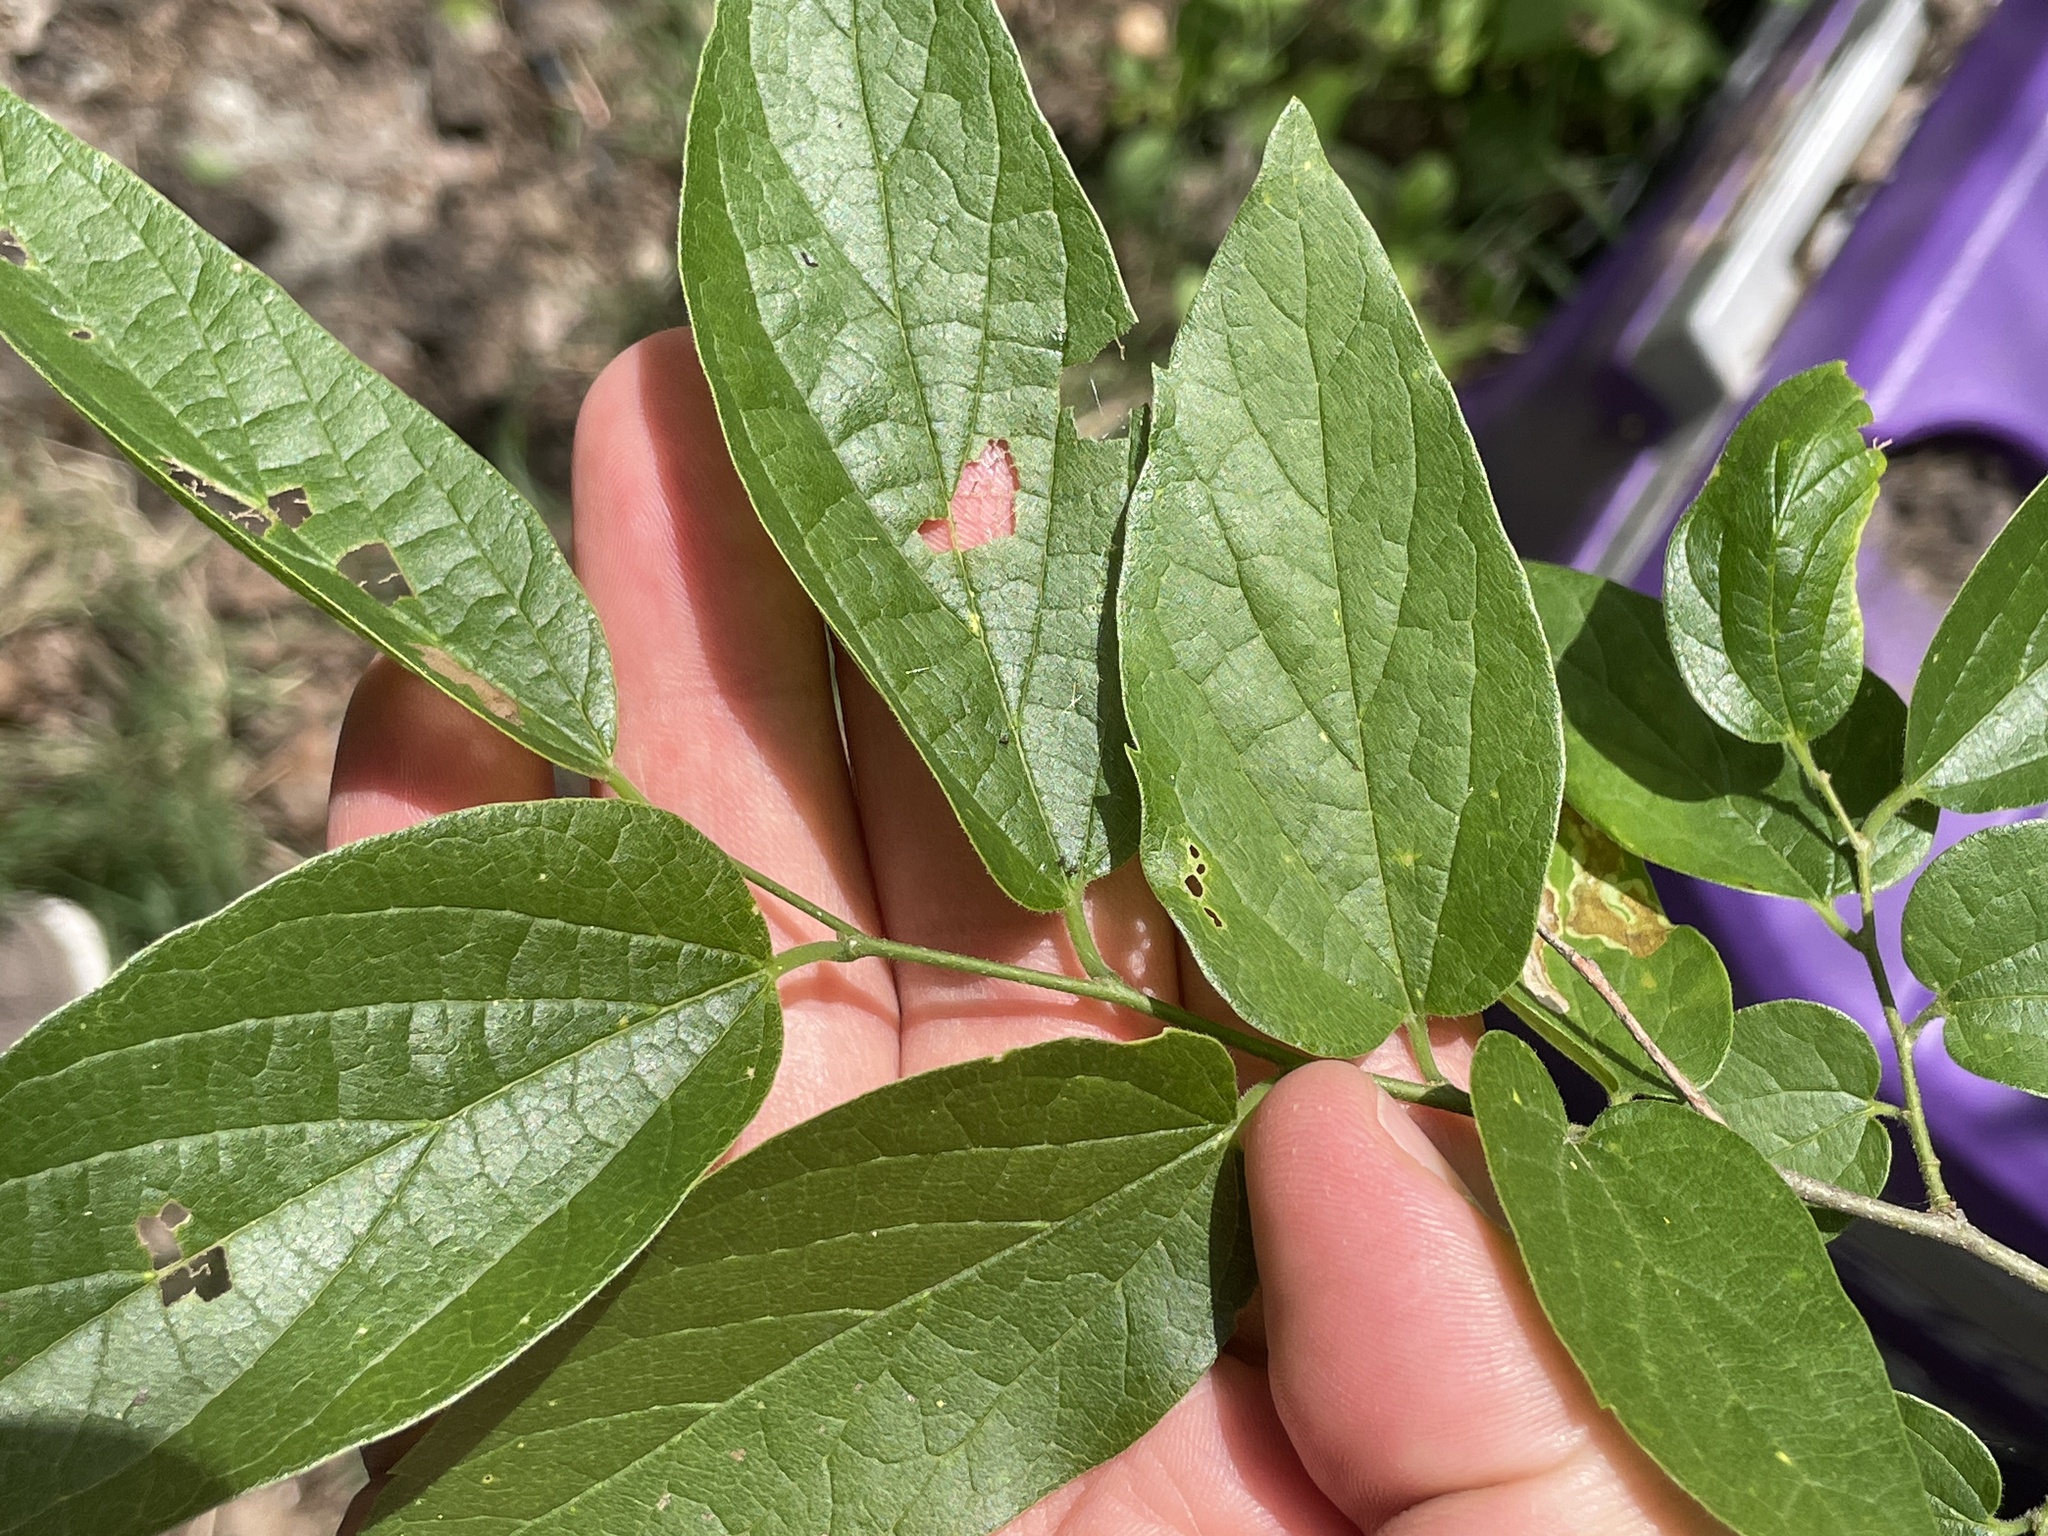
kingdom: Plantae
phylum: Tracheophyta
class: Magnoliopsida
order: Rosales
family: Cannabaceae
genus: Celtis
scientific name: Celtis laevigata
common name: Sugarberry
